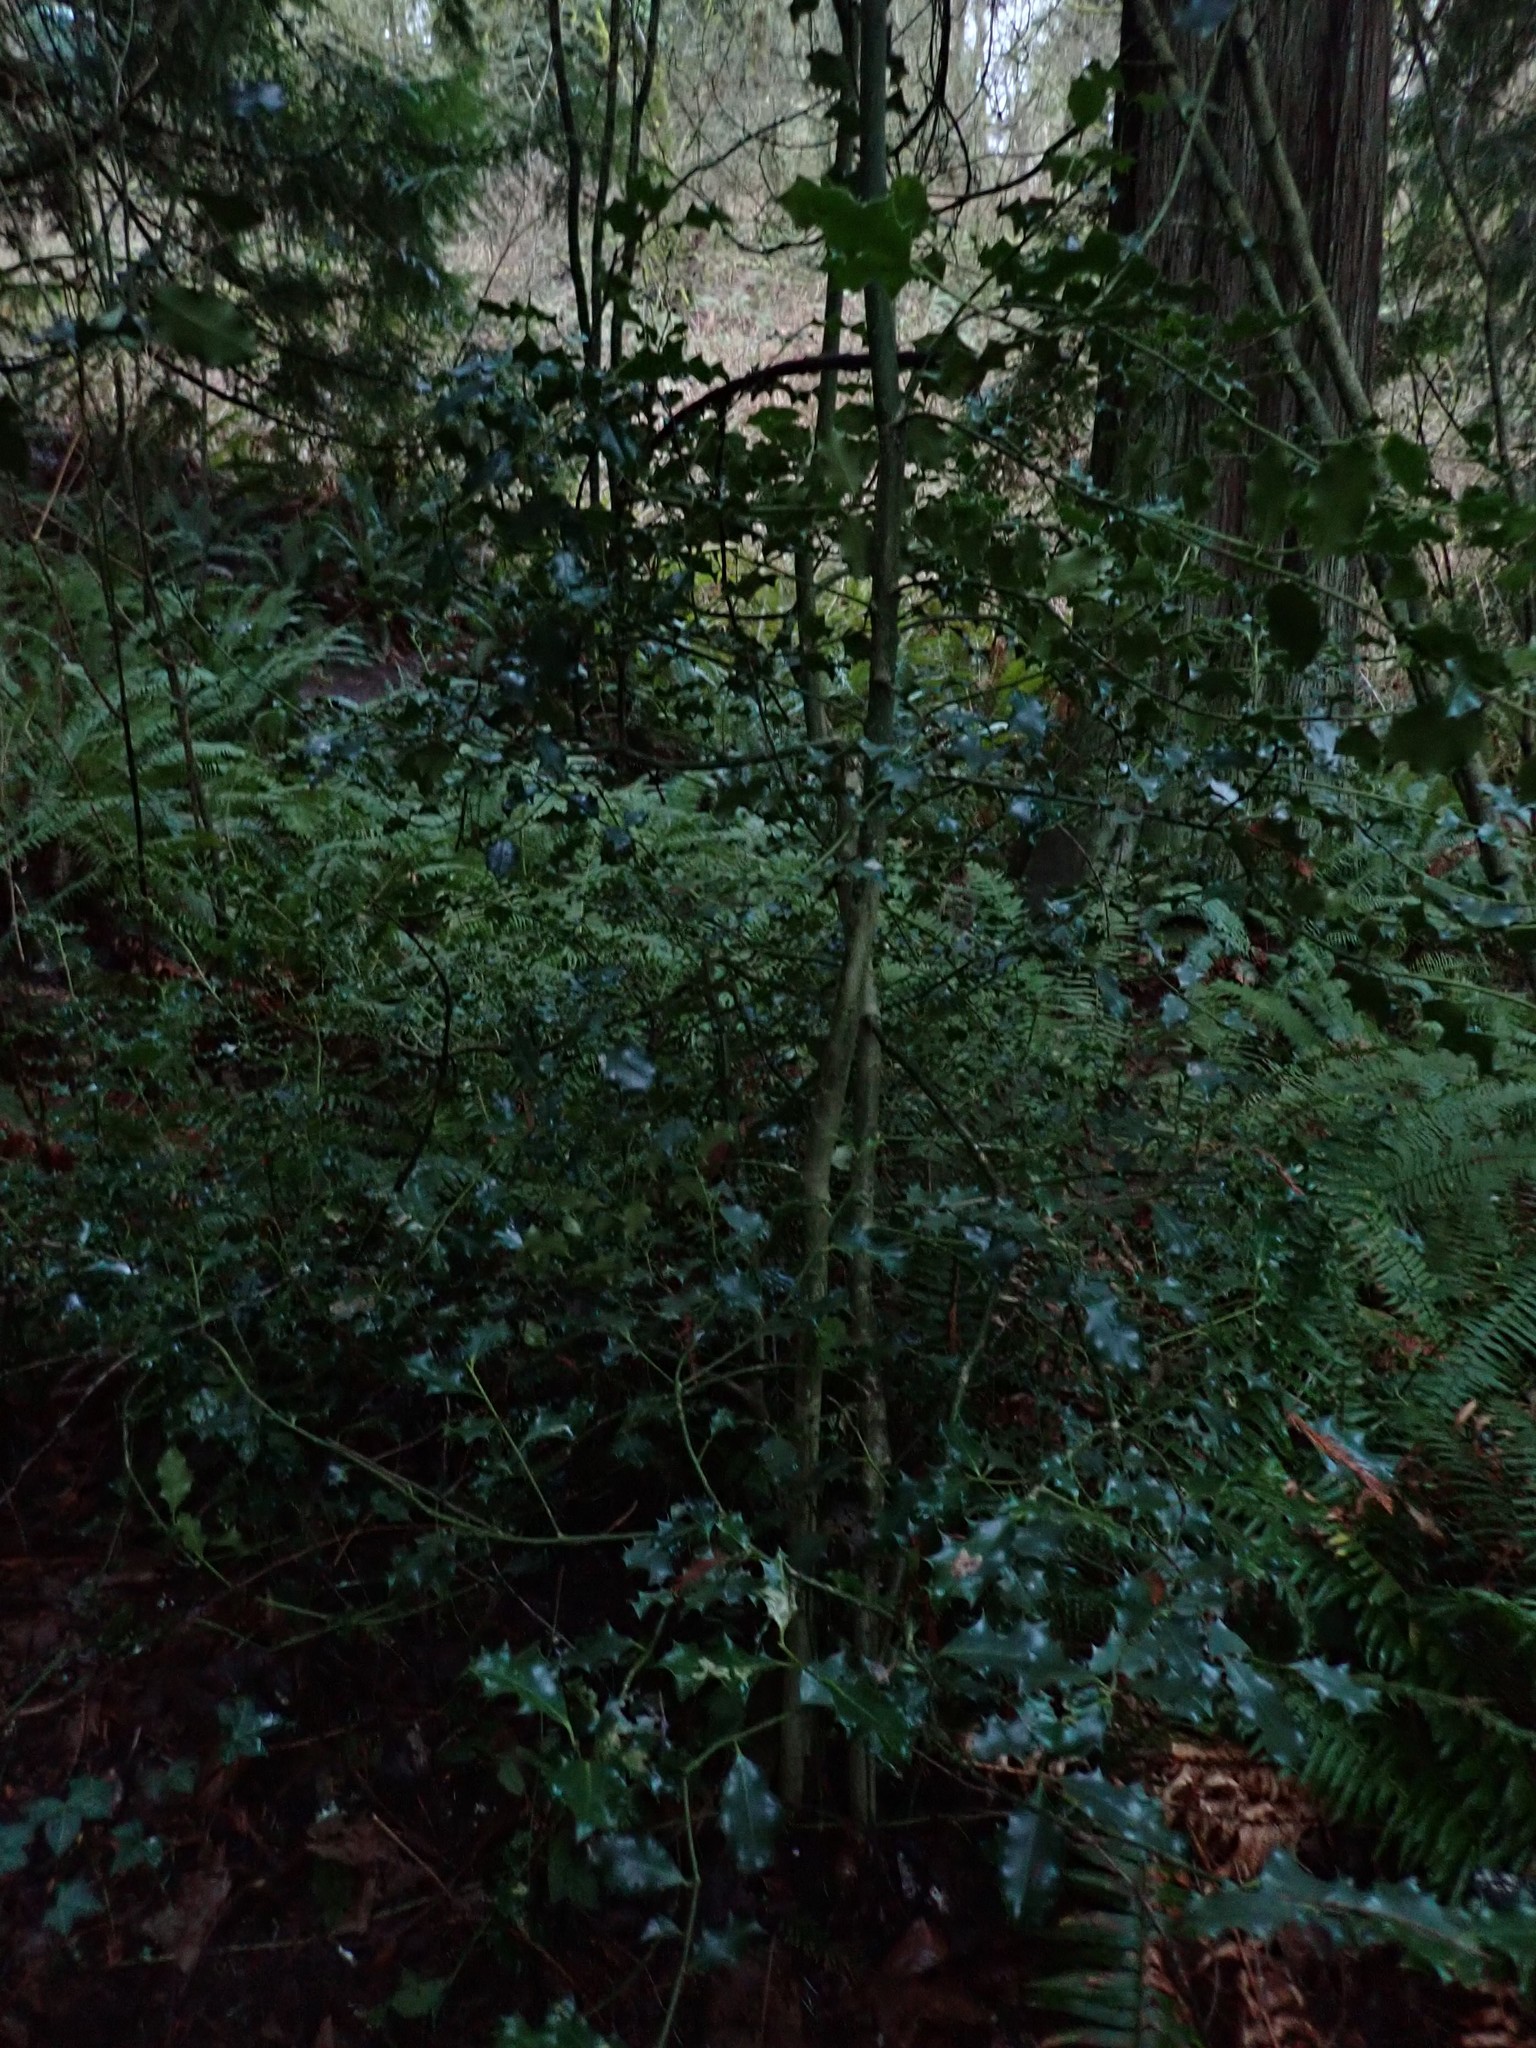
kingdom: Plantae
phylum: Tracheophyta
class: Magnoliopsida
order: Aquifoliales
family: Aquifoliaceae
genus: Ilex
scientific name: Ilex aquifolium
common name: English holly
